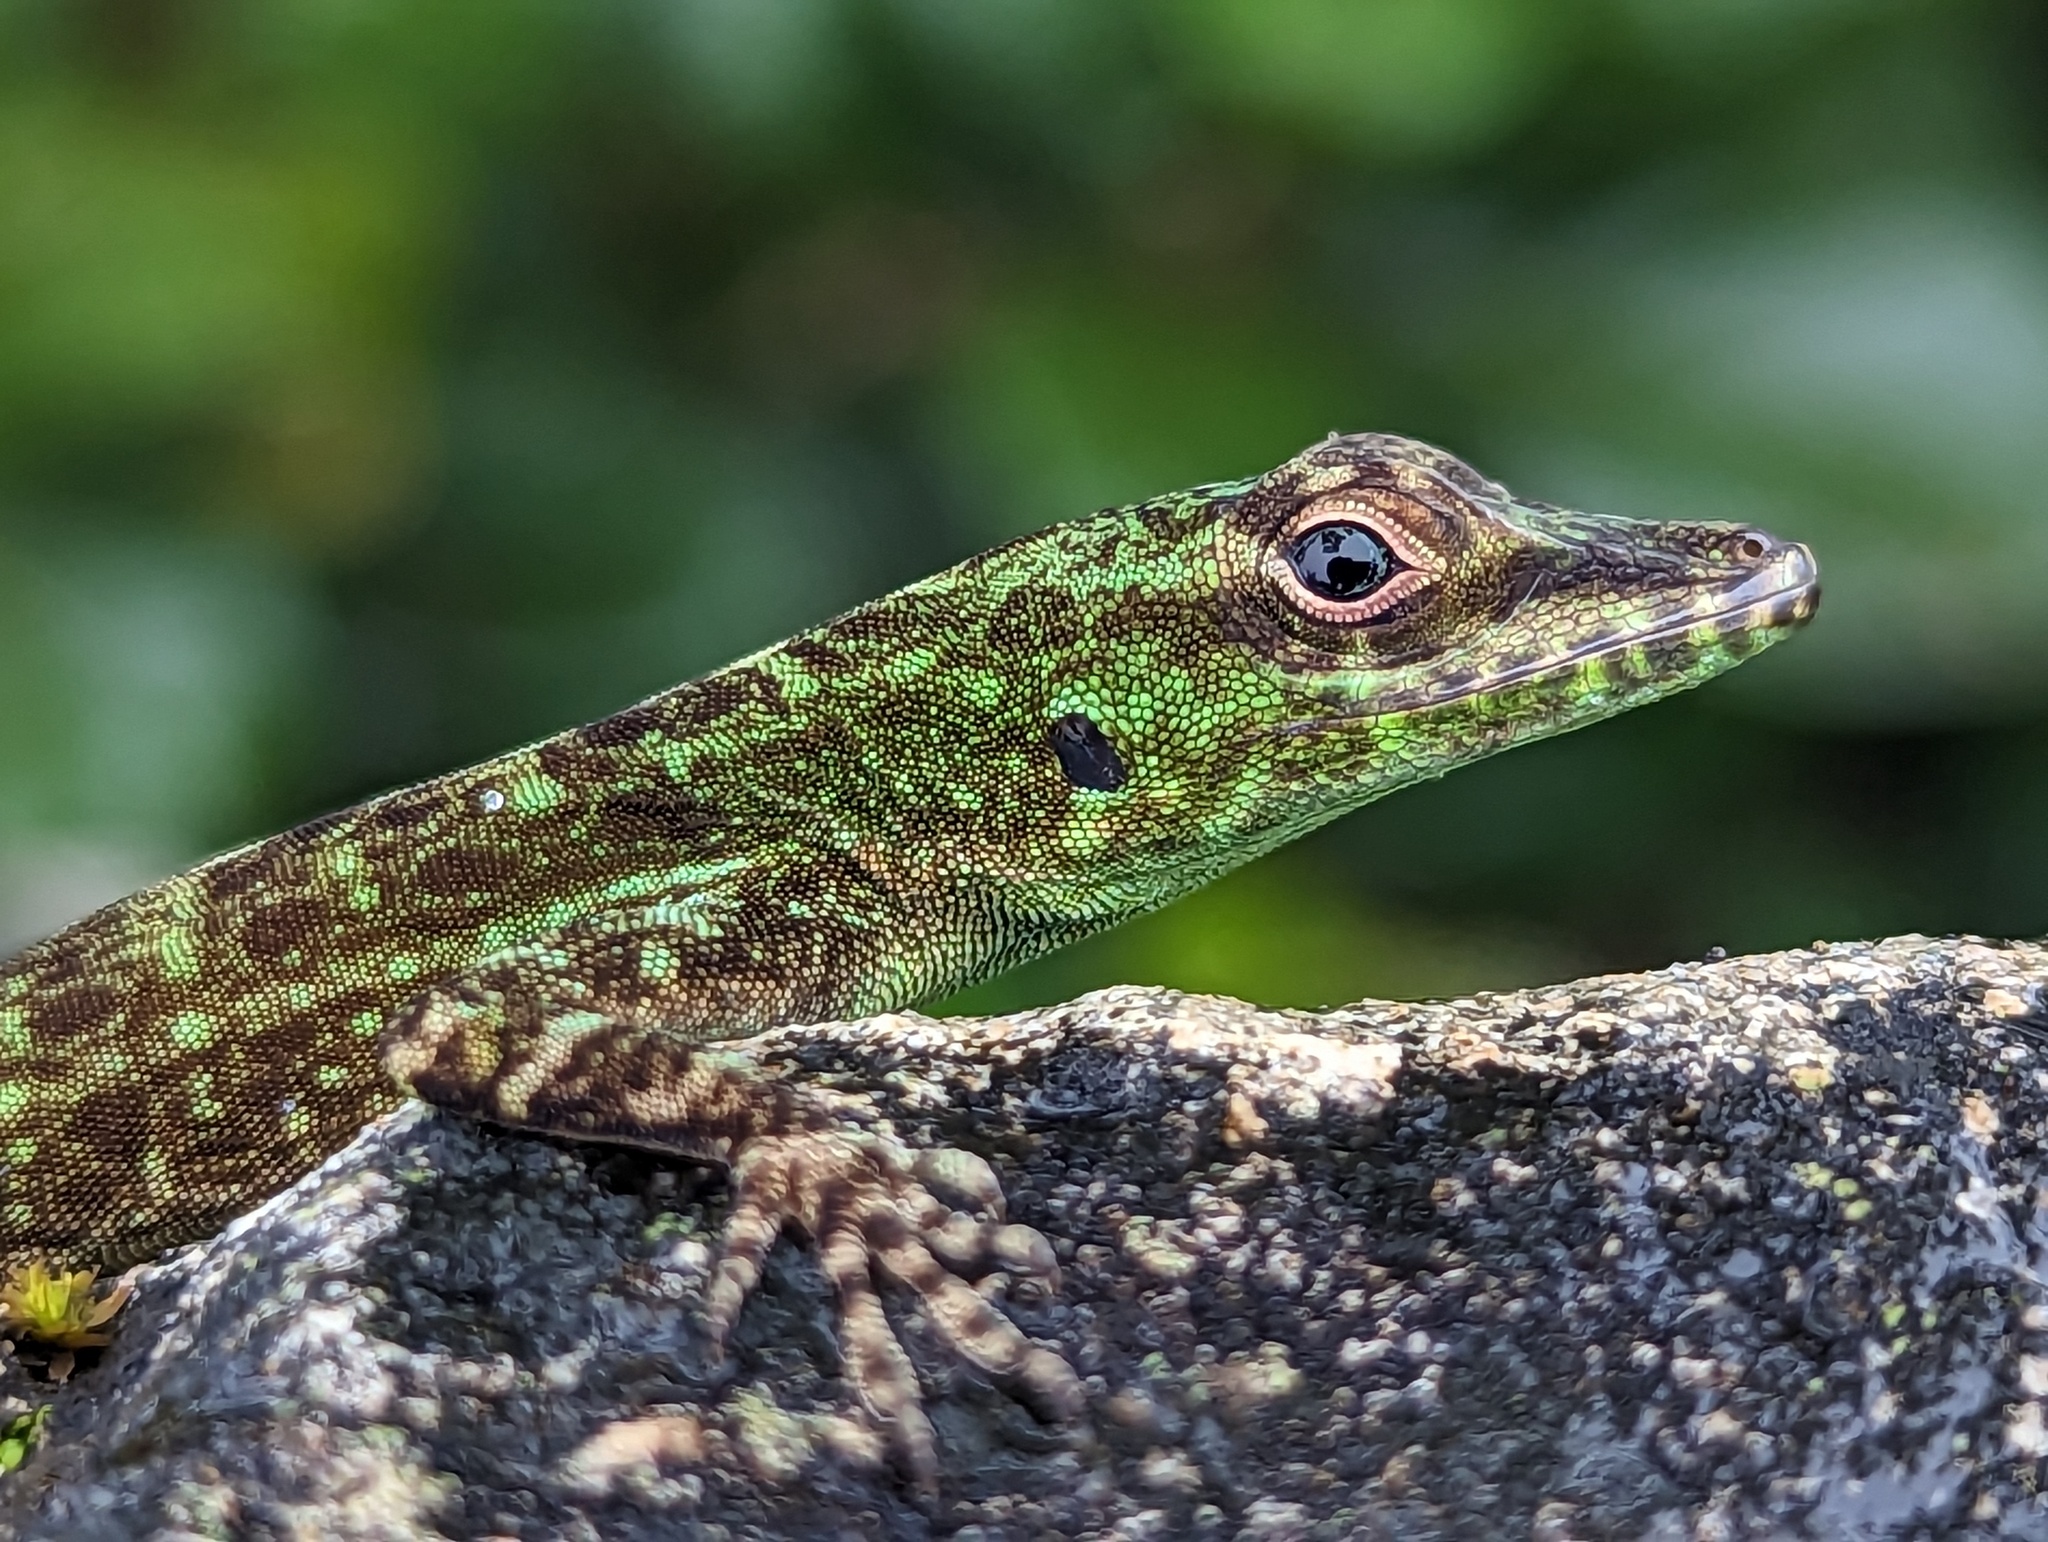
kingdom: Animalia
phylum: Chordata
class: Squamata
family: Dactyloidae
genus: Anolis
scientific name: Anolis evermanni
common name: Emerald anole
